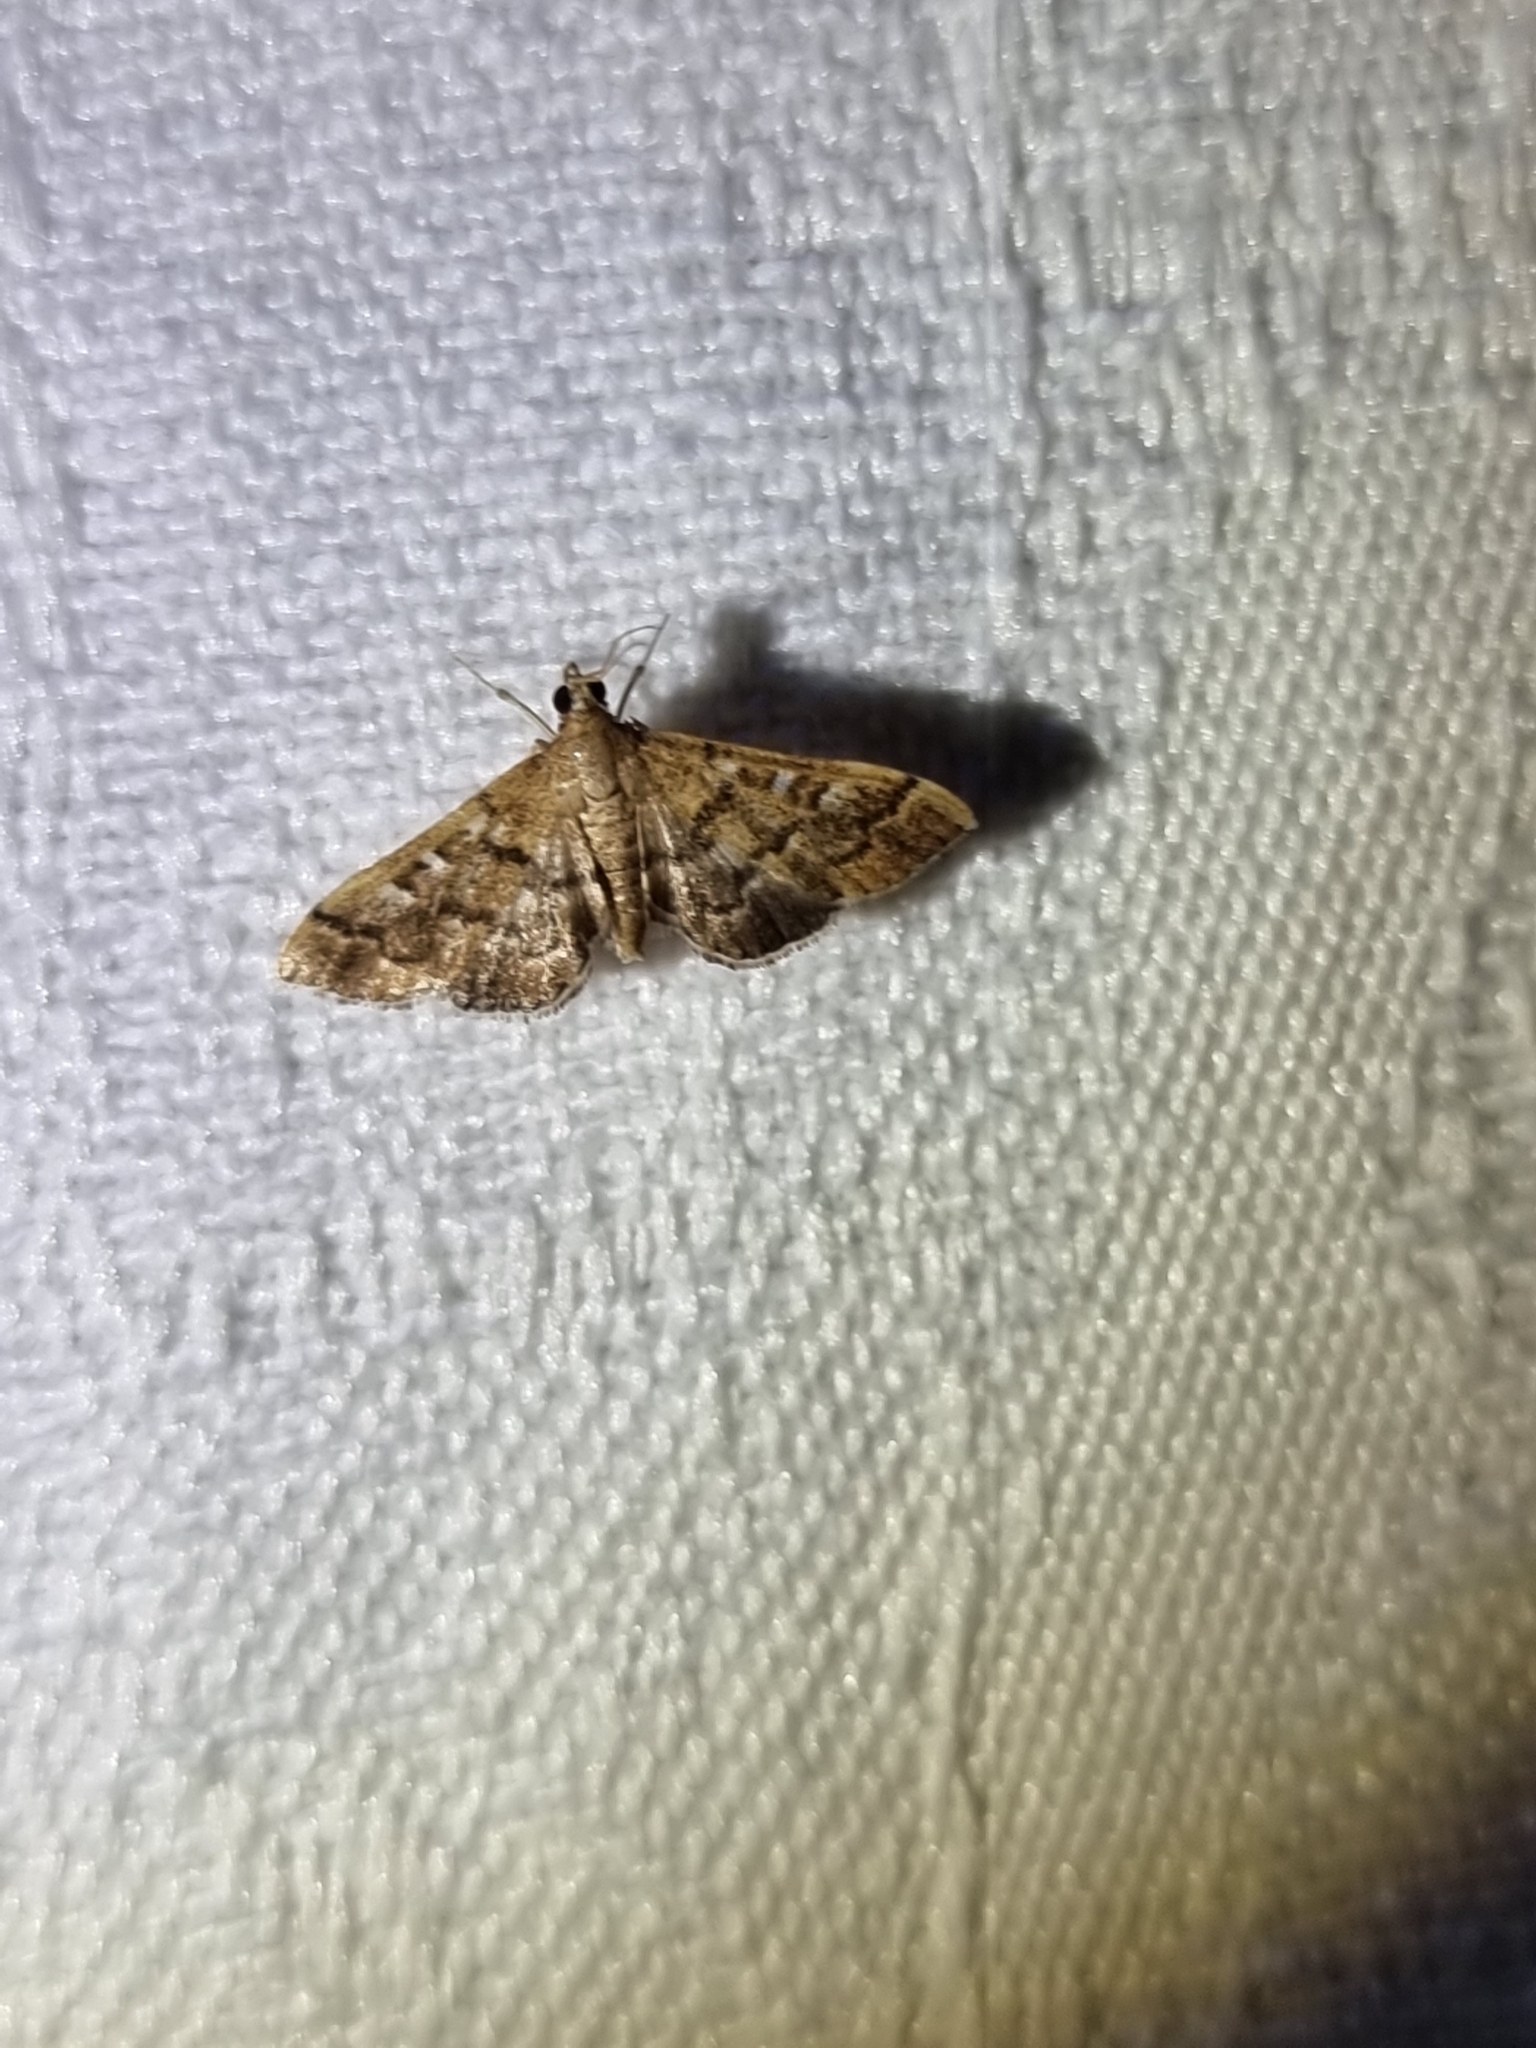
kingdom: Animalia
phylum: Arthropoda
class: Insecta
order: Lepidoptera
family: Crambidae
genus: Nacoleia
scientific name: Nacoleia rhoeoalis
